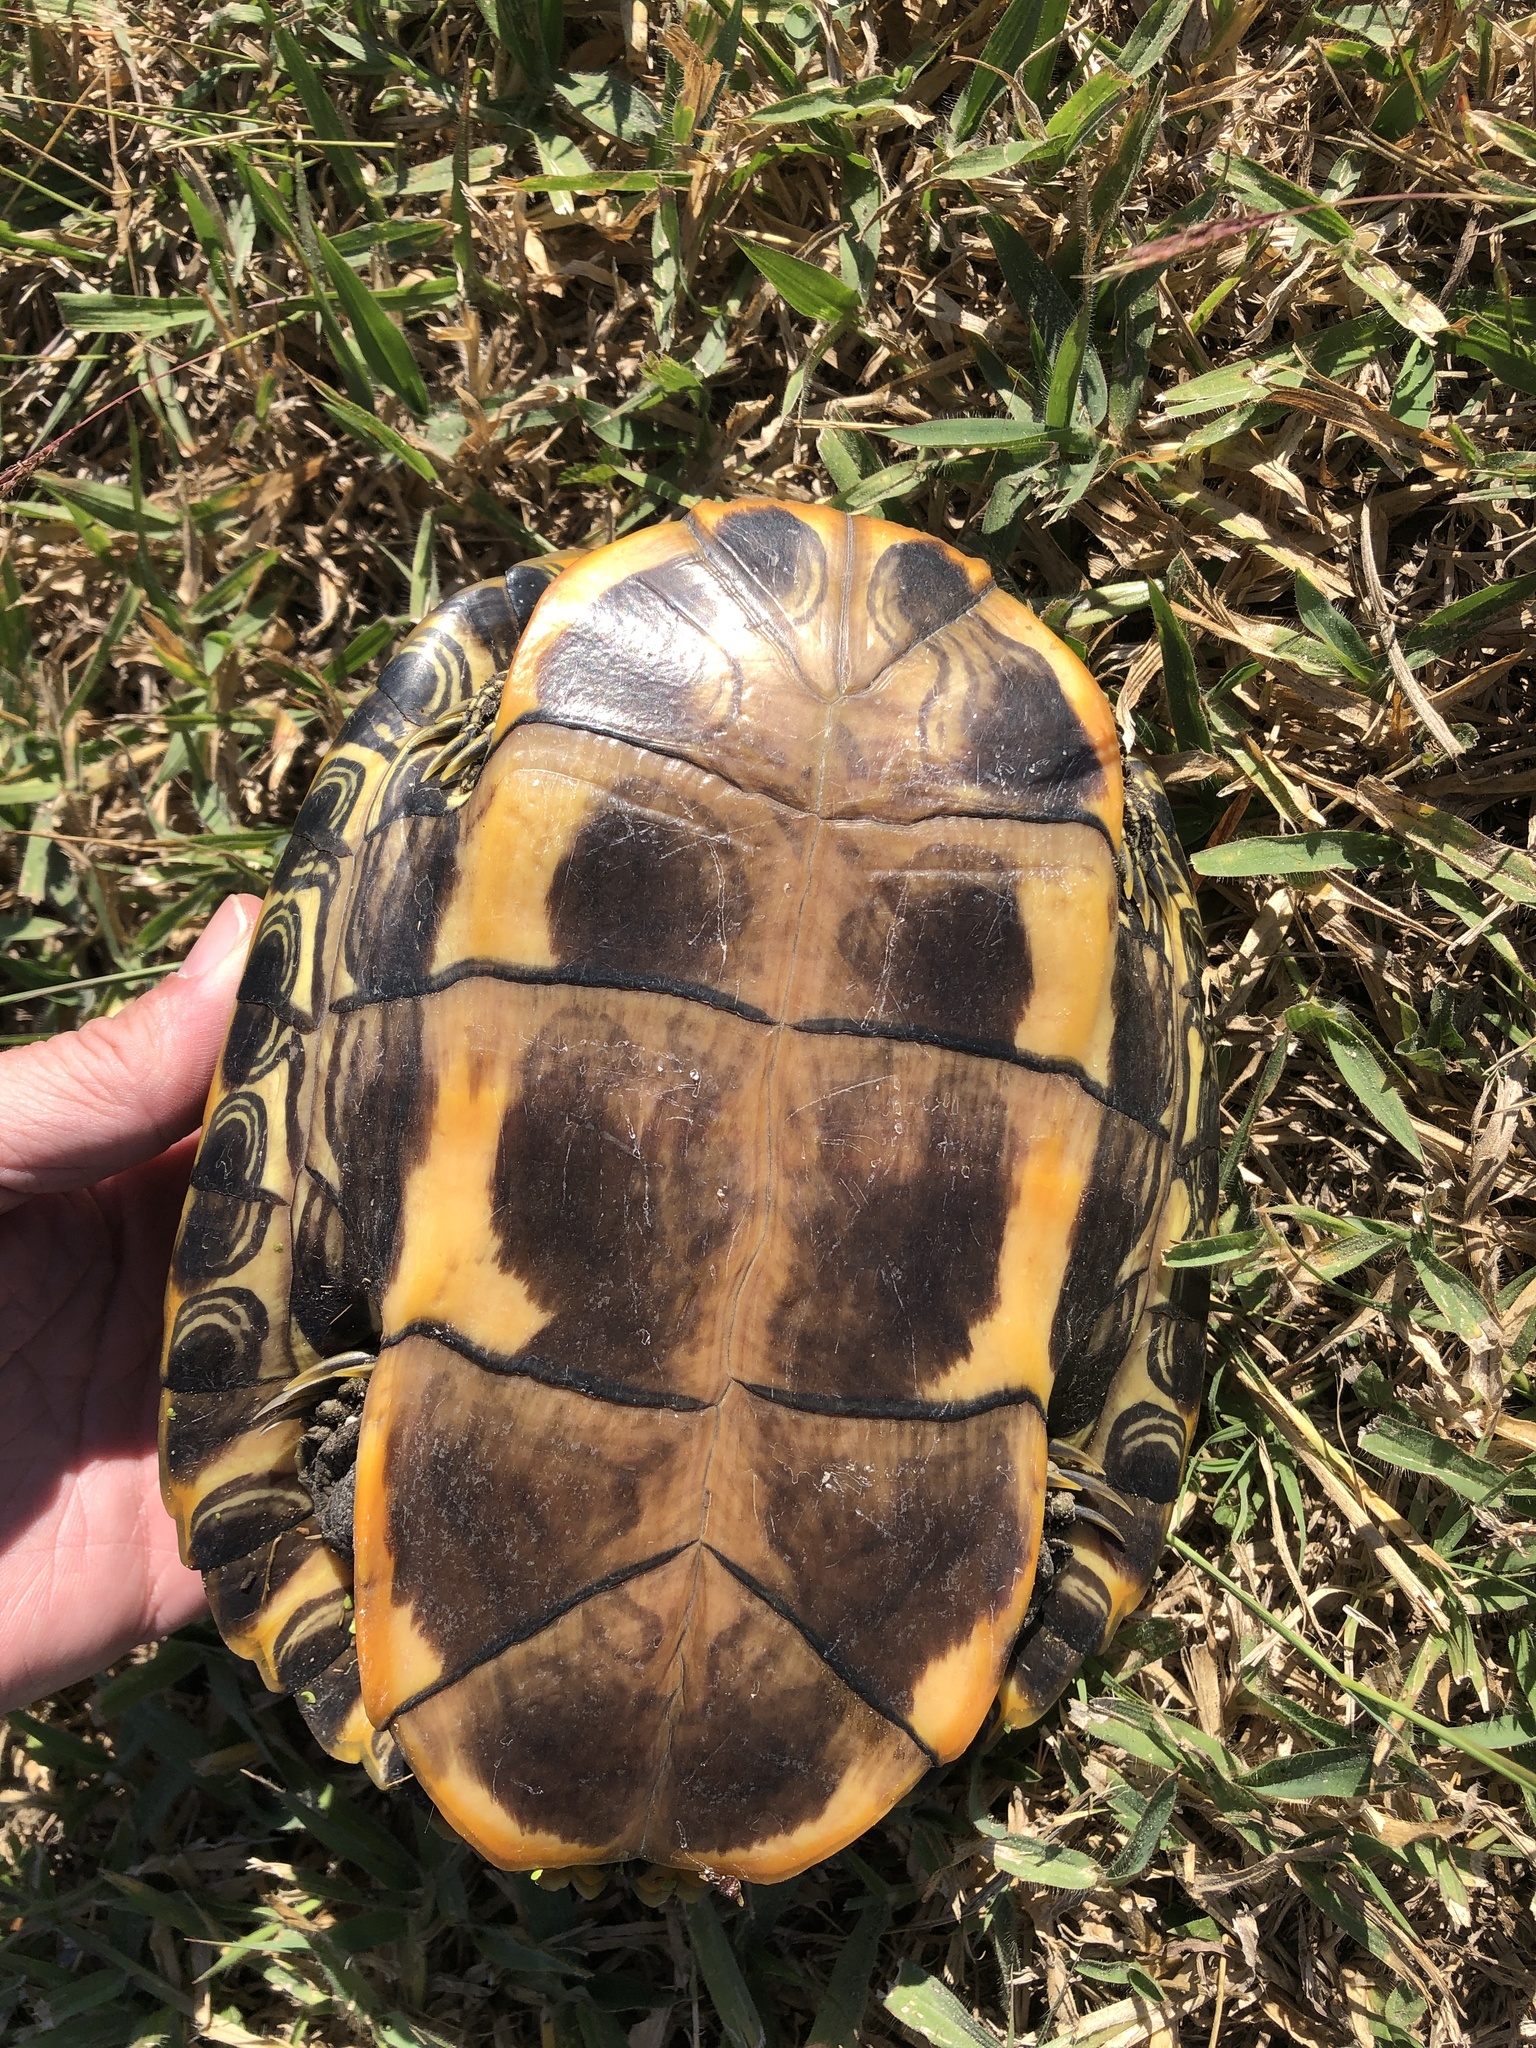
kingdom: Animalia
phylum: Chordata
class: Testudines
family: Emydidae
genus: Trachemys
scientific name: Trachemys scripta
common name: Slider
